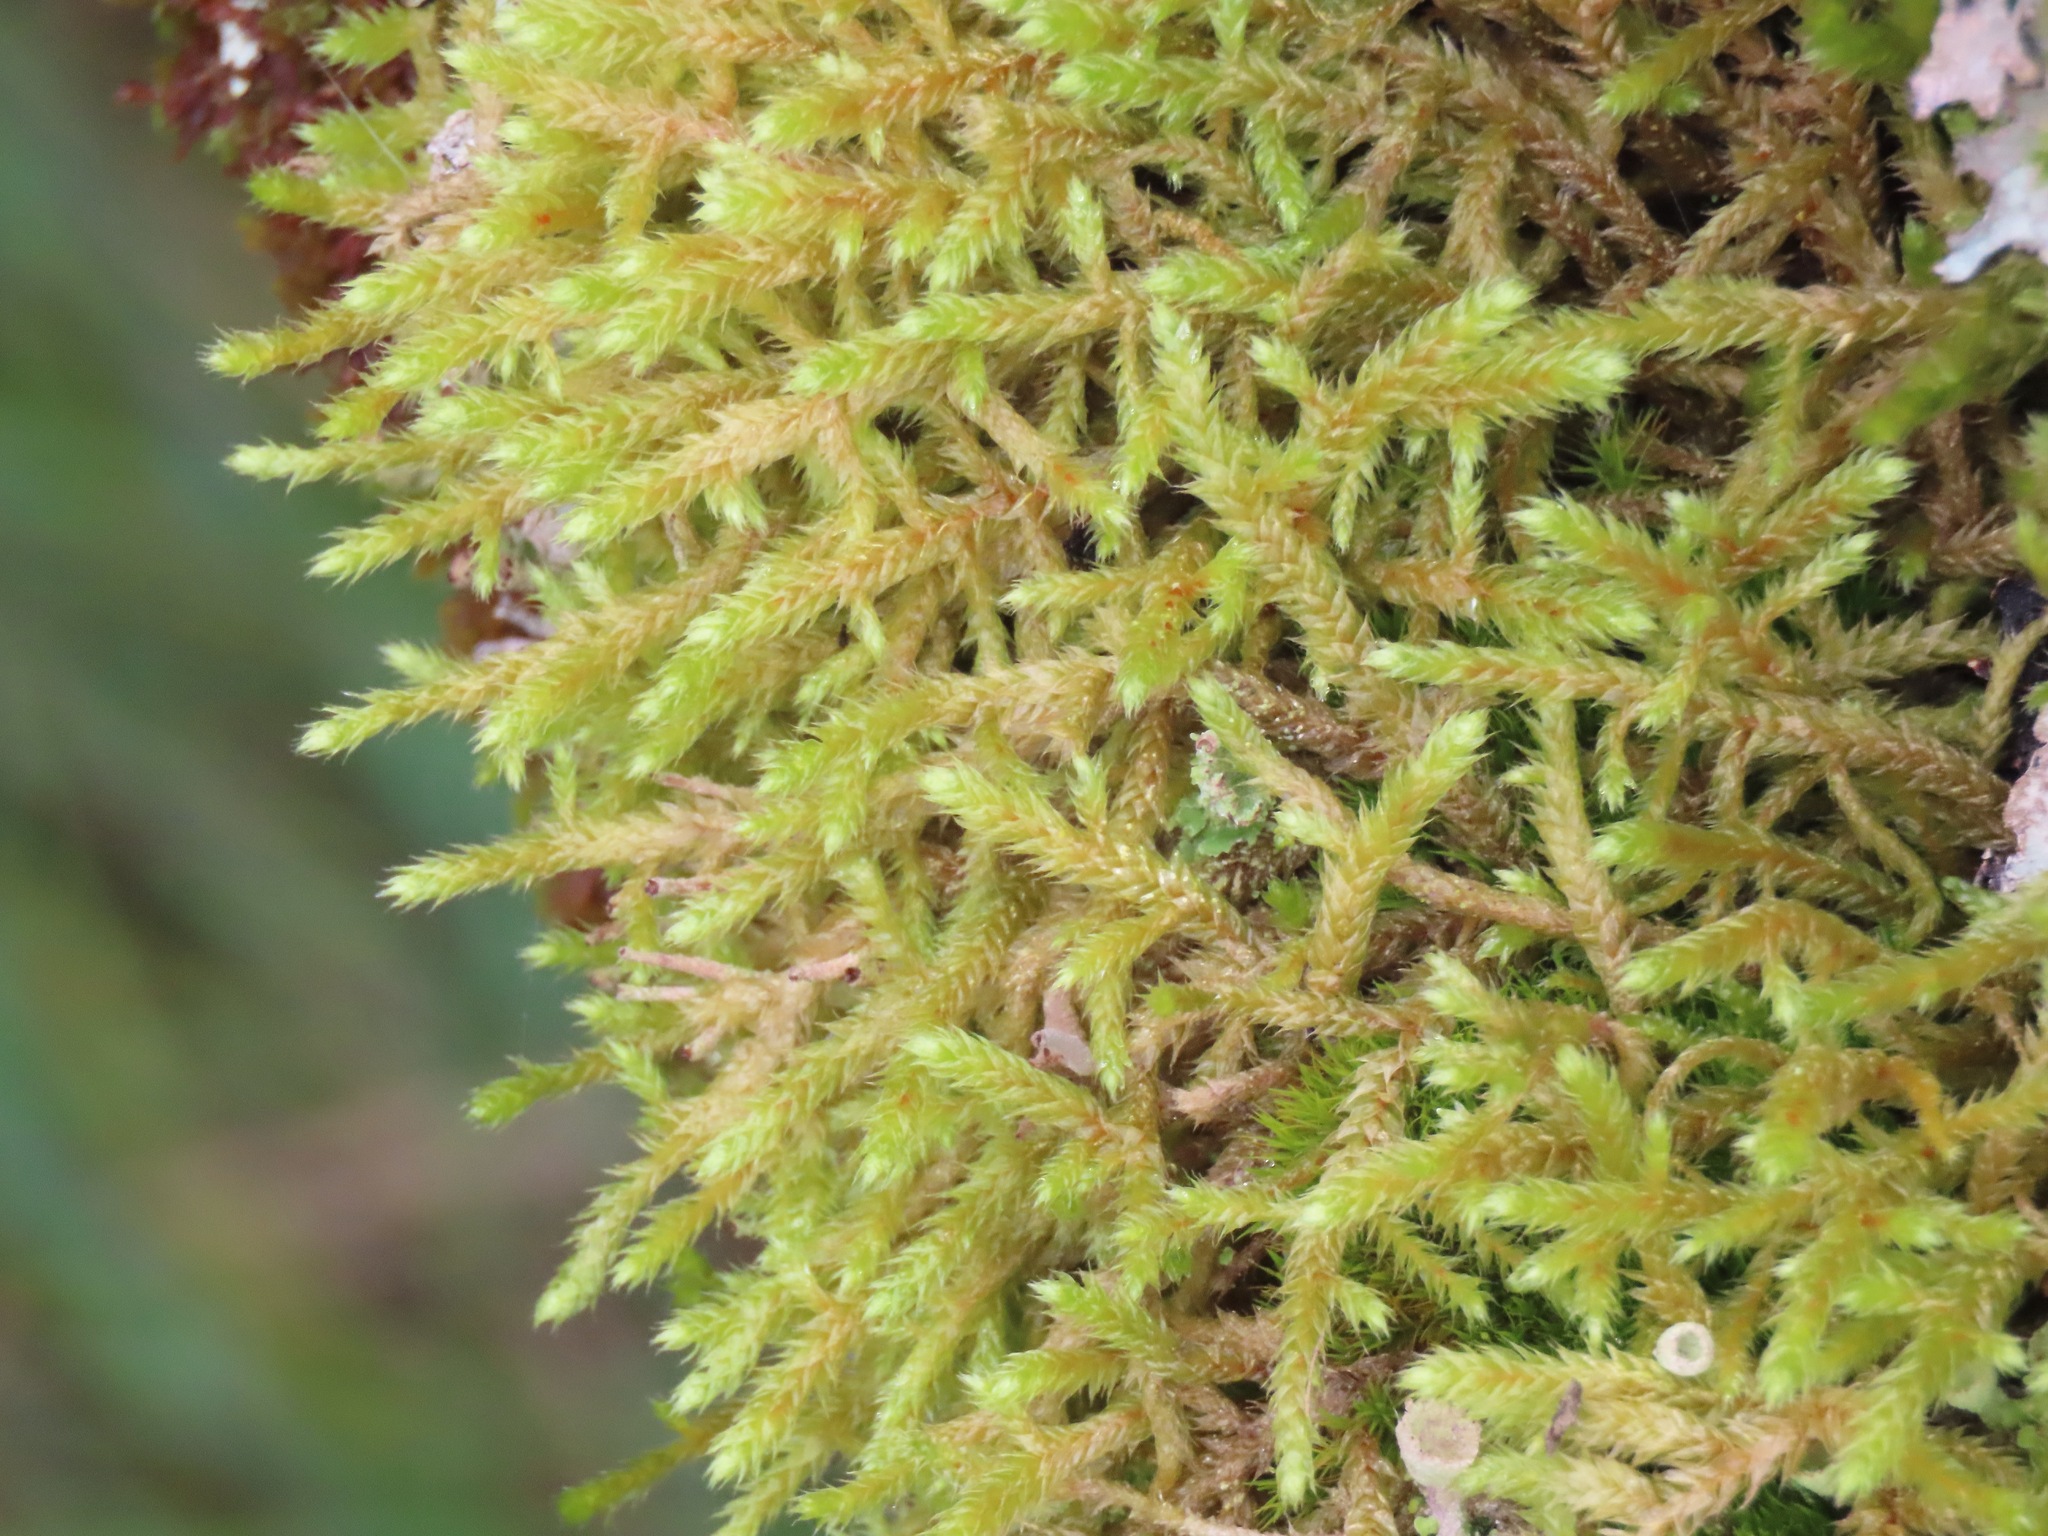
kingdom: Plantae
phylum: Bryophyta
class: Bryopsida
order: Hypnales
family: Antitrichiaceae
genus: Antitrichia
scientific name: Antitrichia curtipendula
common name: Pendulous wing-moss
